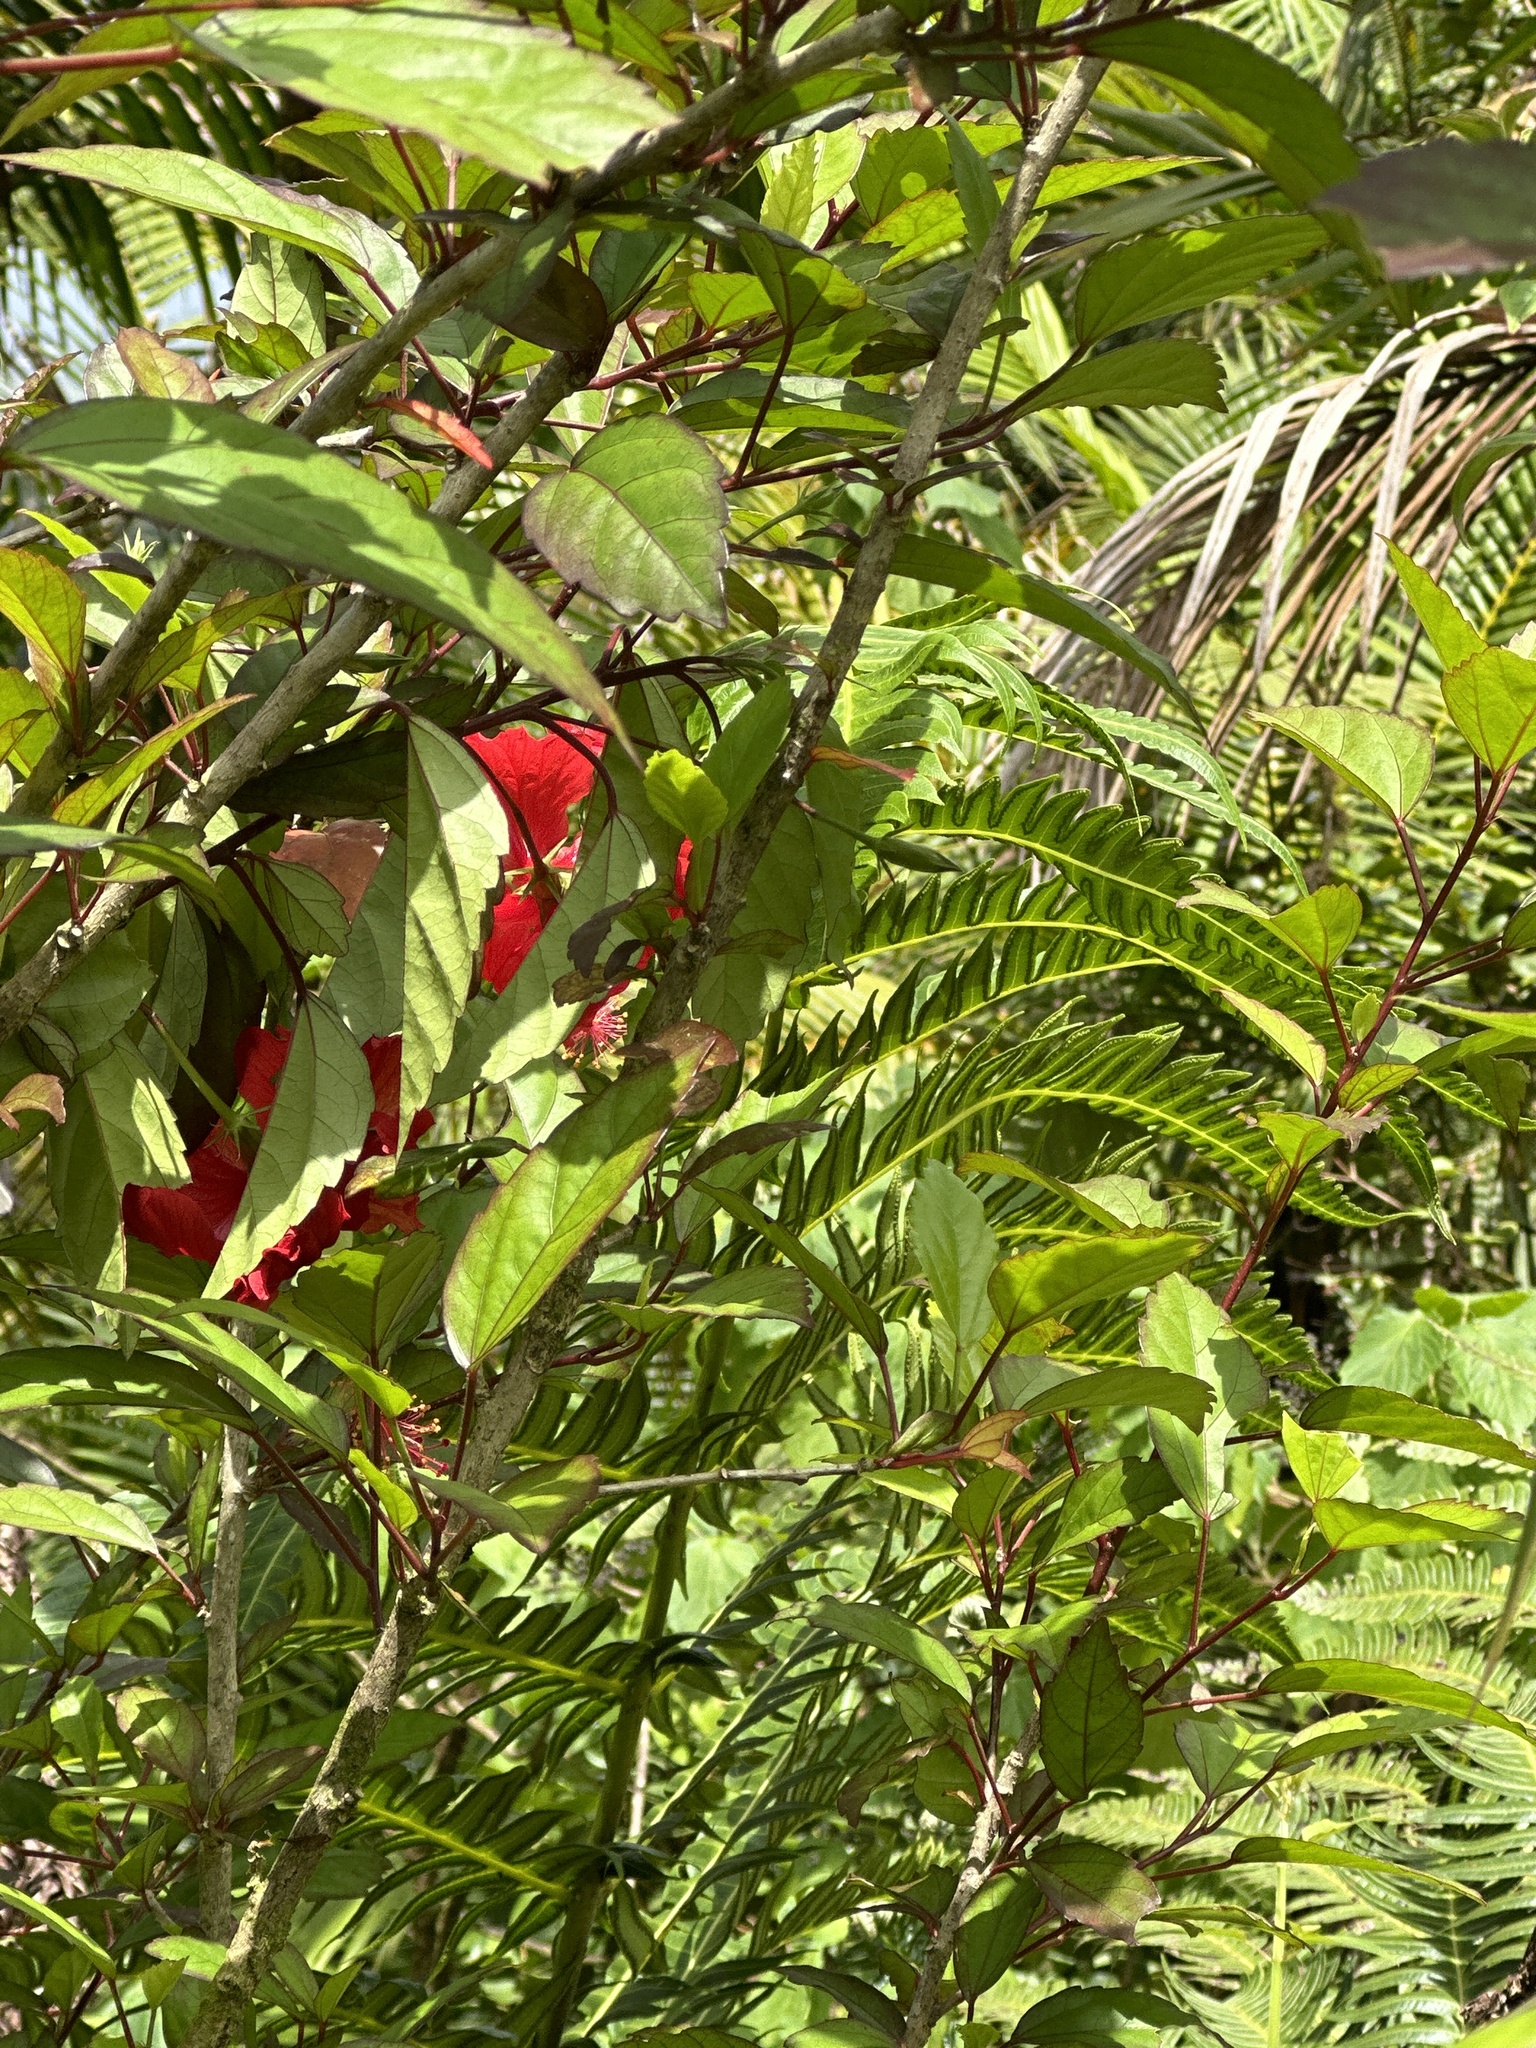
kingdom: Plantae
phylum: Tracheophyta
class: Magnoliopsida
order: Malvales
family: Malvaceae
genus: Hibiscus
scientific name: Hibiscus archeri
